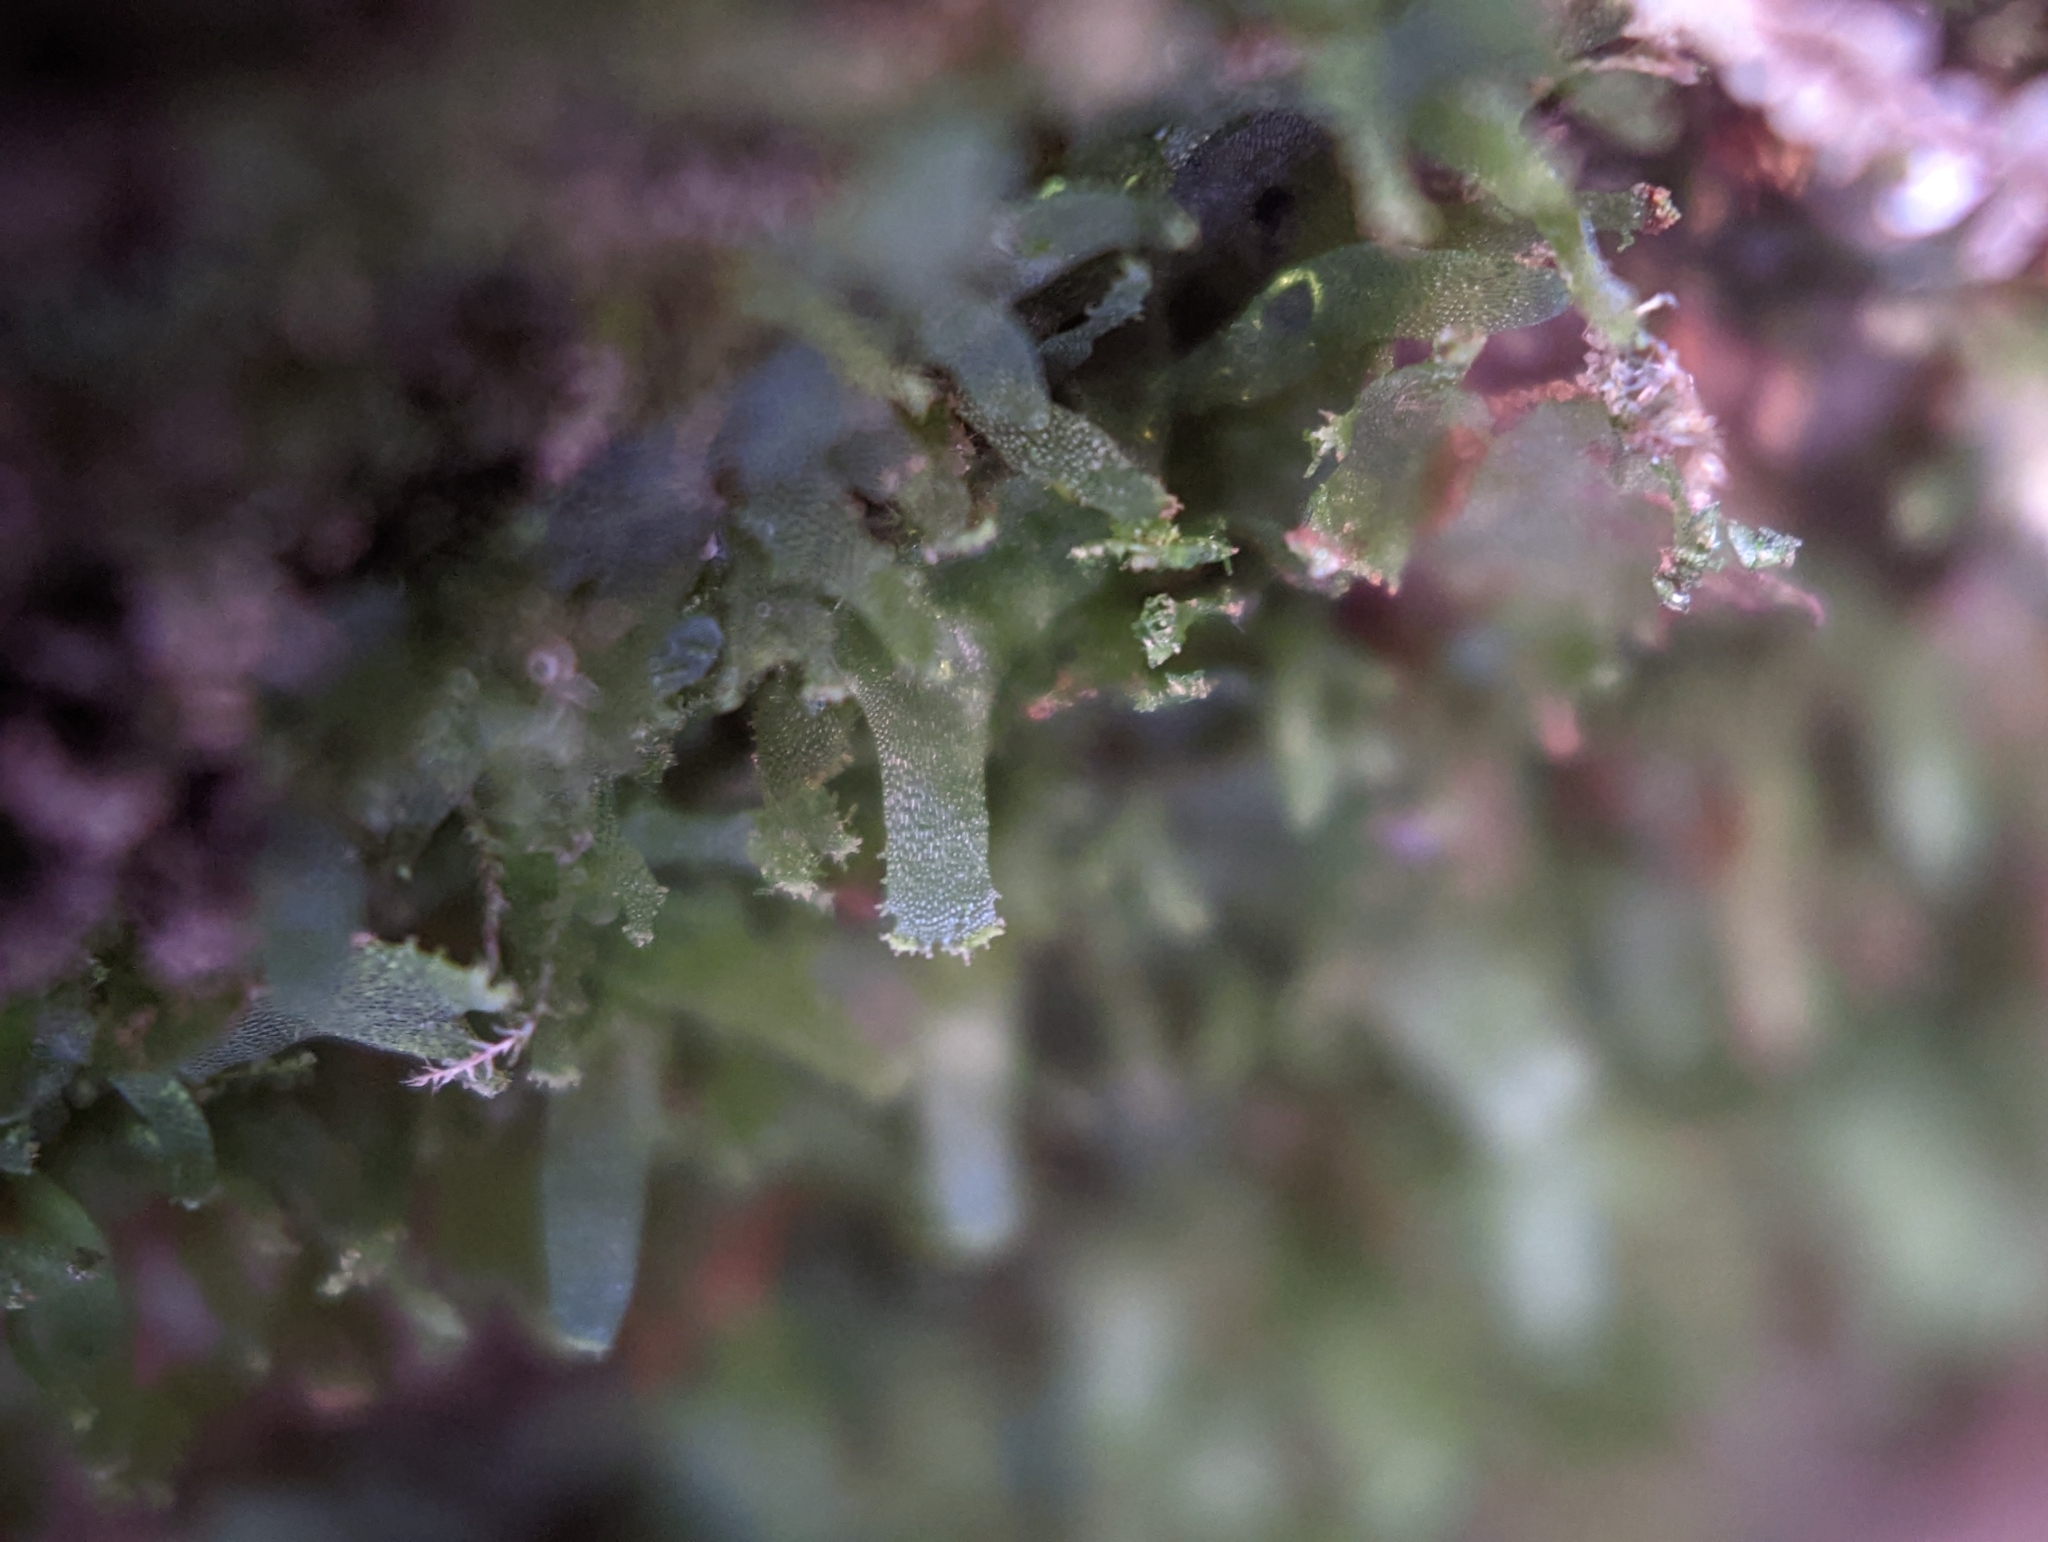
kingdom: Plantae
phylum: Tracheophyta
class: Polypodiopsida
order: Polypodiales
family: Pteridaceae
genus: Vittaria
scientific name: Vittaria appalachiana
